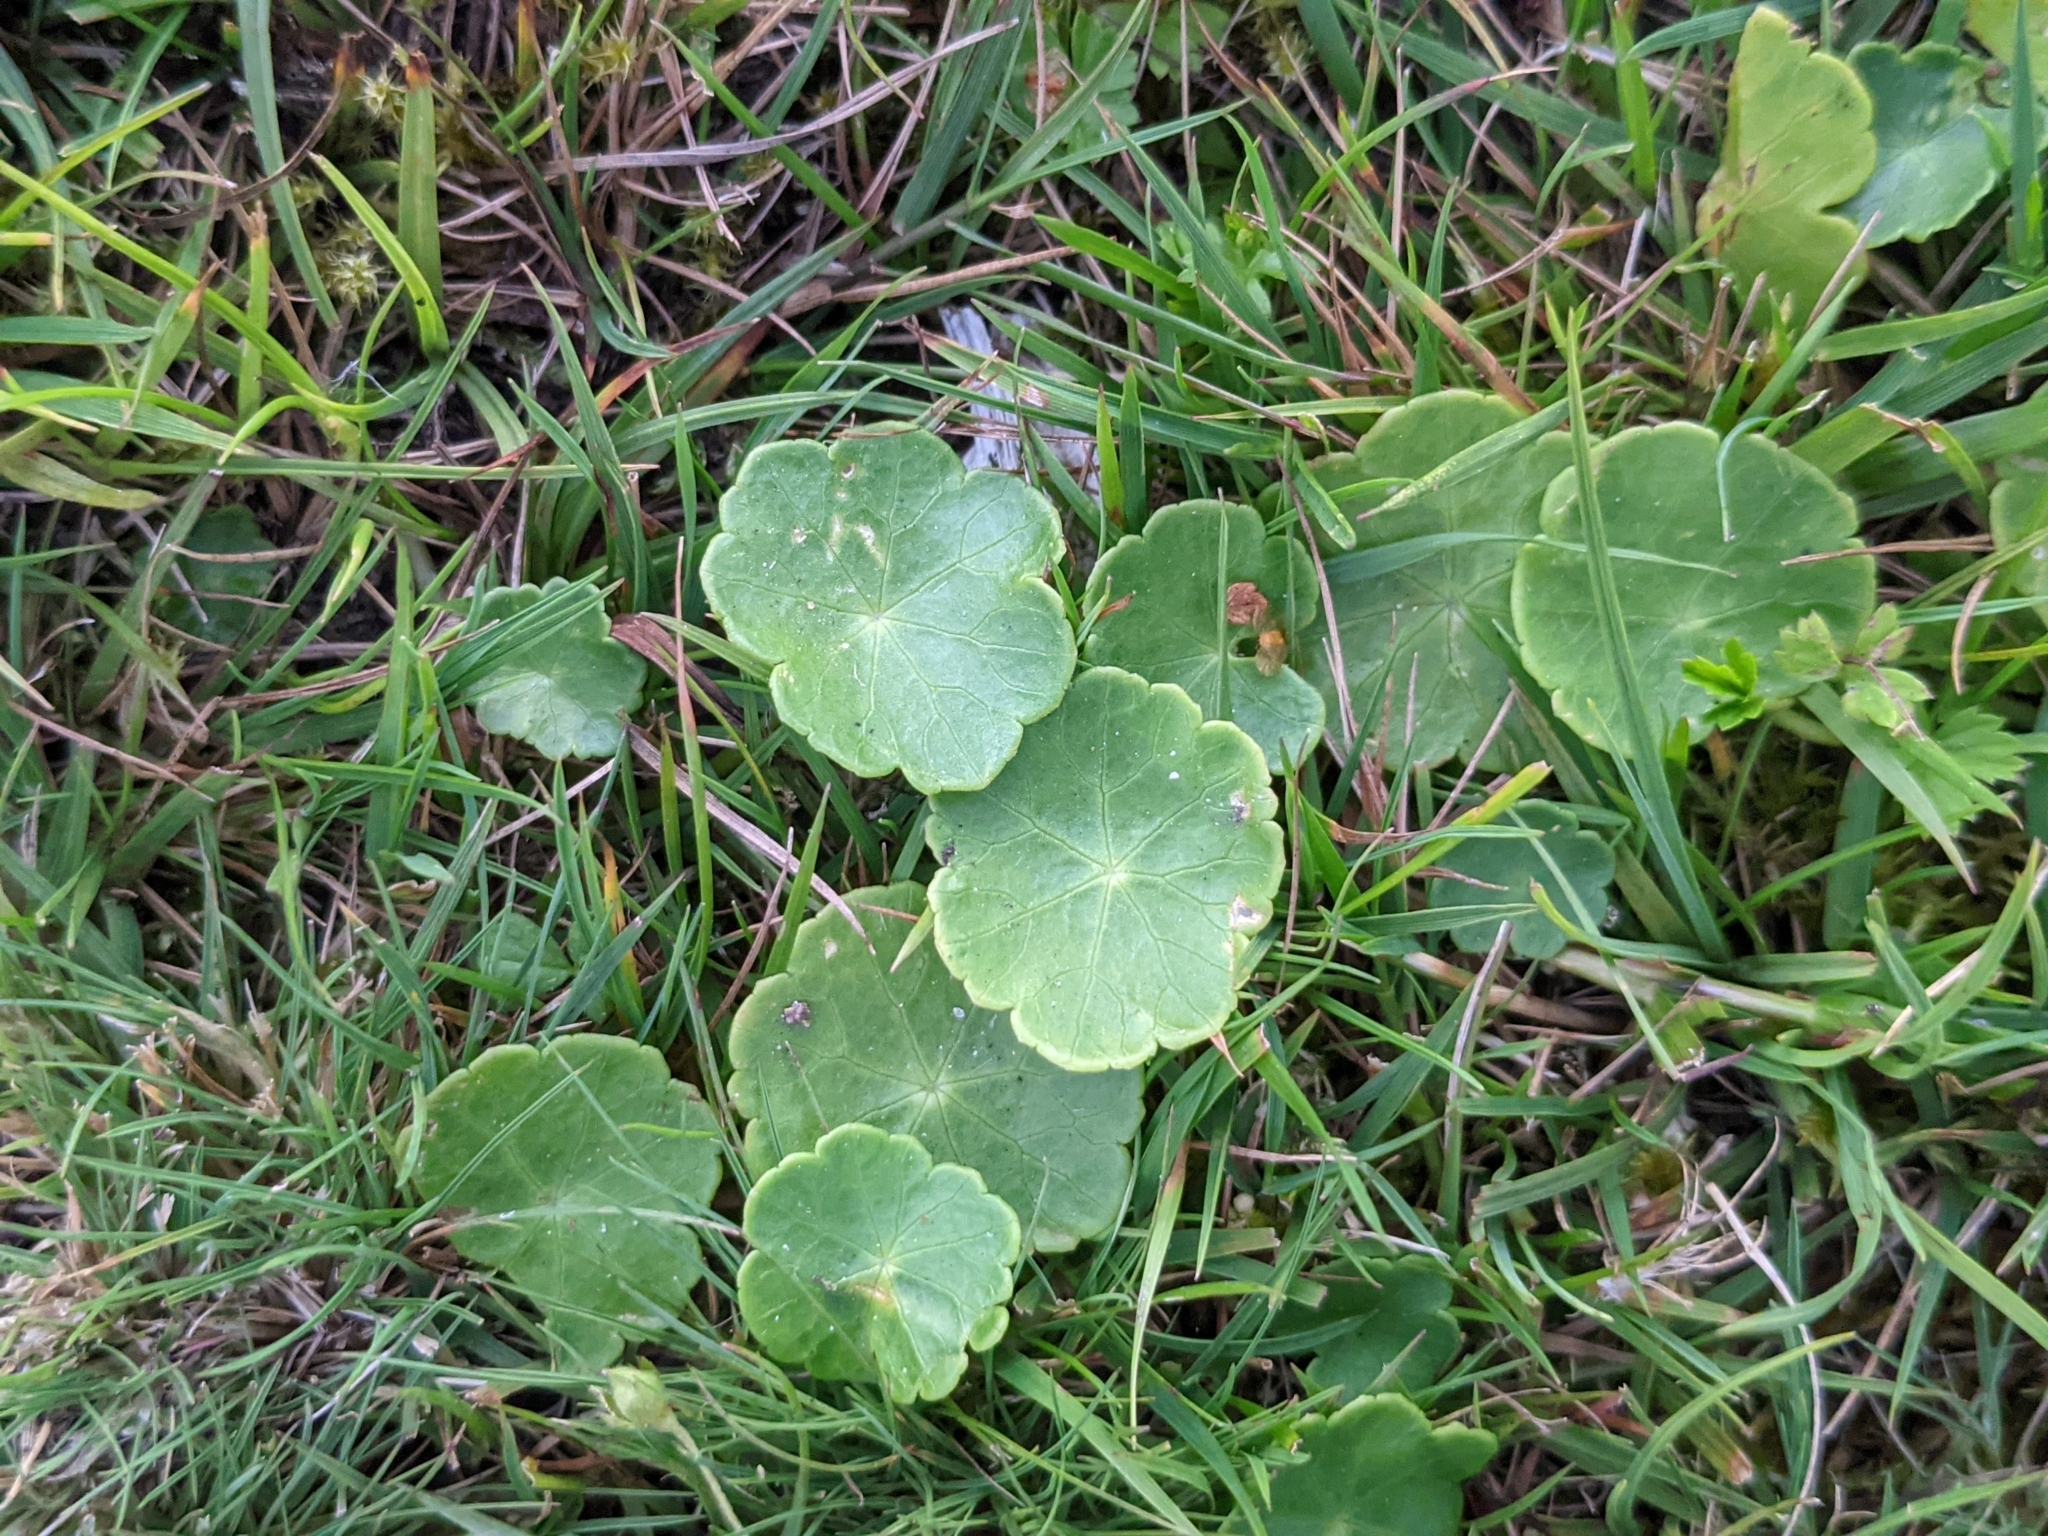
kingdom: Plantae
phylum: Tracheophyta
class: Magnoliopsida
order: Apiales
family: Araliaceae
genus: Hydrocotyle
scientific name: Hydrocotyle vulgaris
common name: Marsh pennywort
